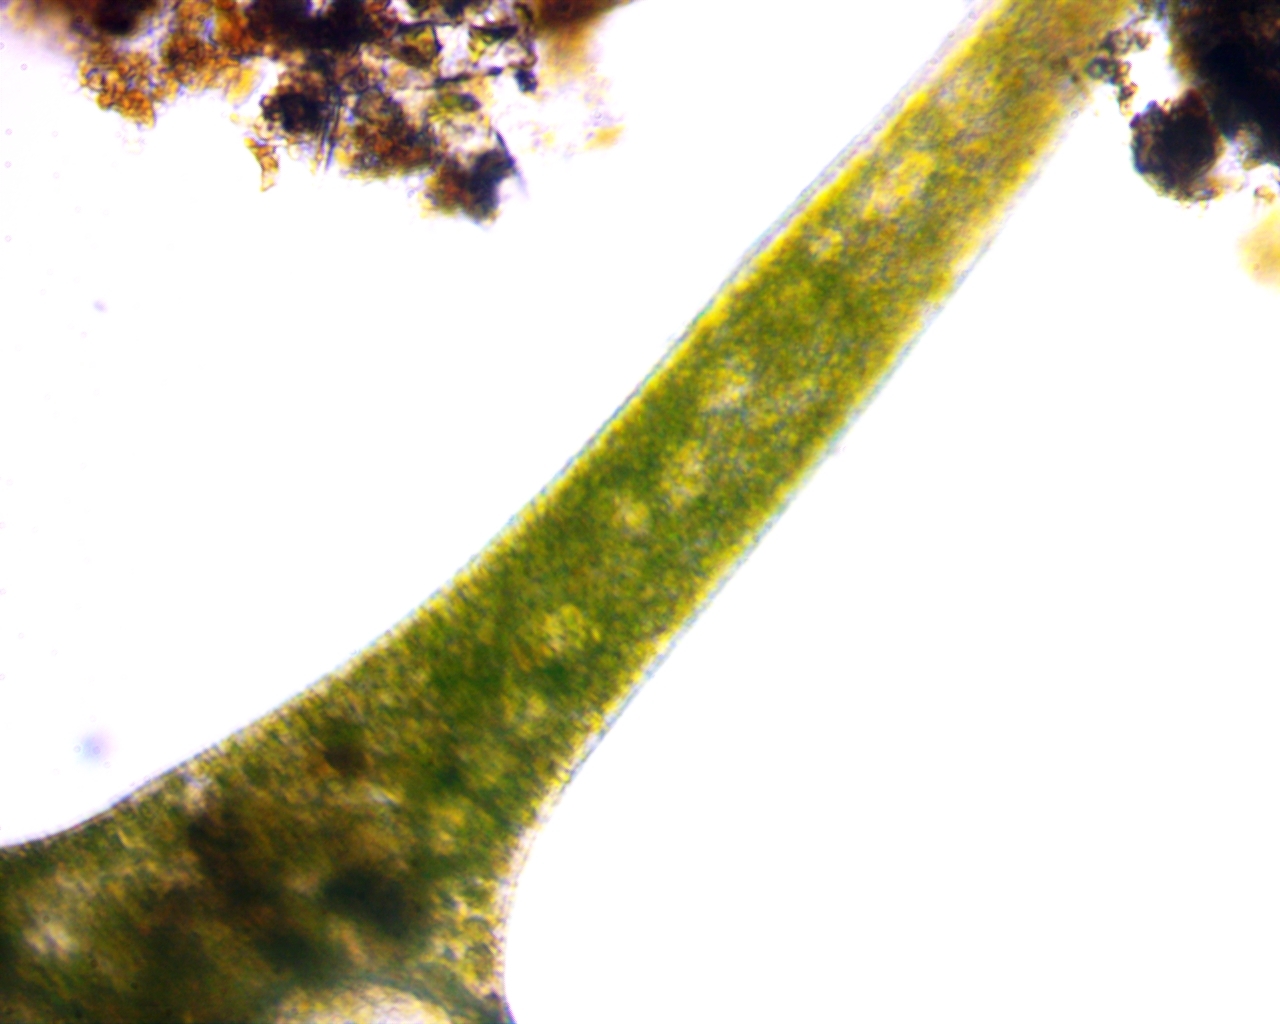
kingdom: Chromista
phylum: Ciliophora
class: Heterotrichea
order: Heterotrichida
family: Stentoridae
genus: Stentor
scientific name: Stentor polymorphus
